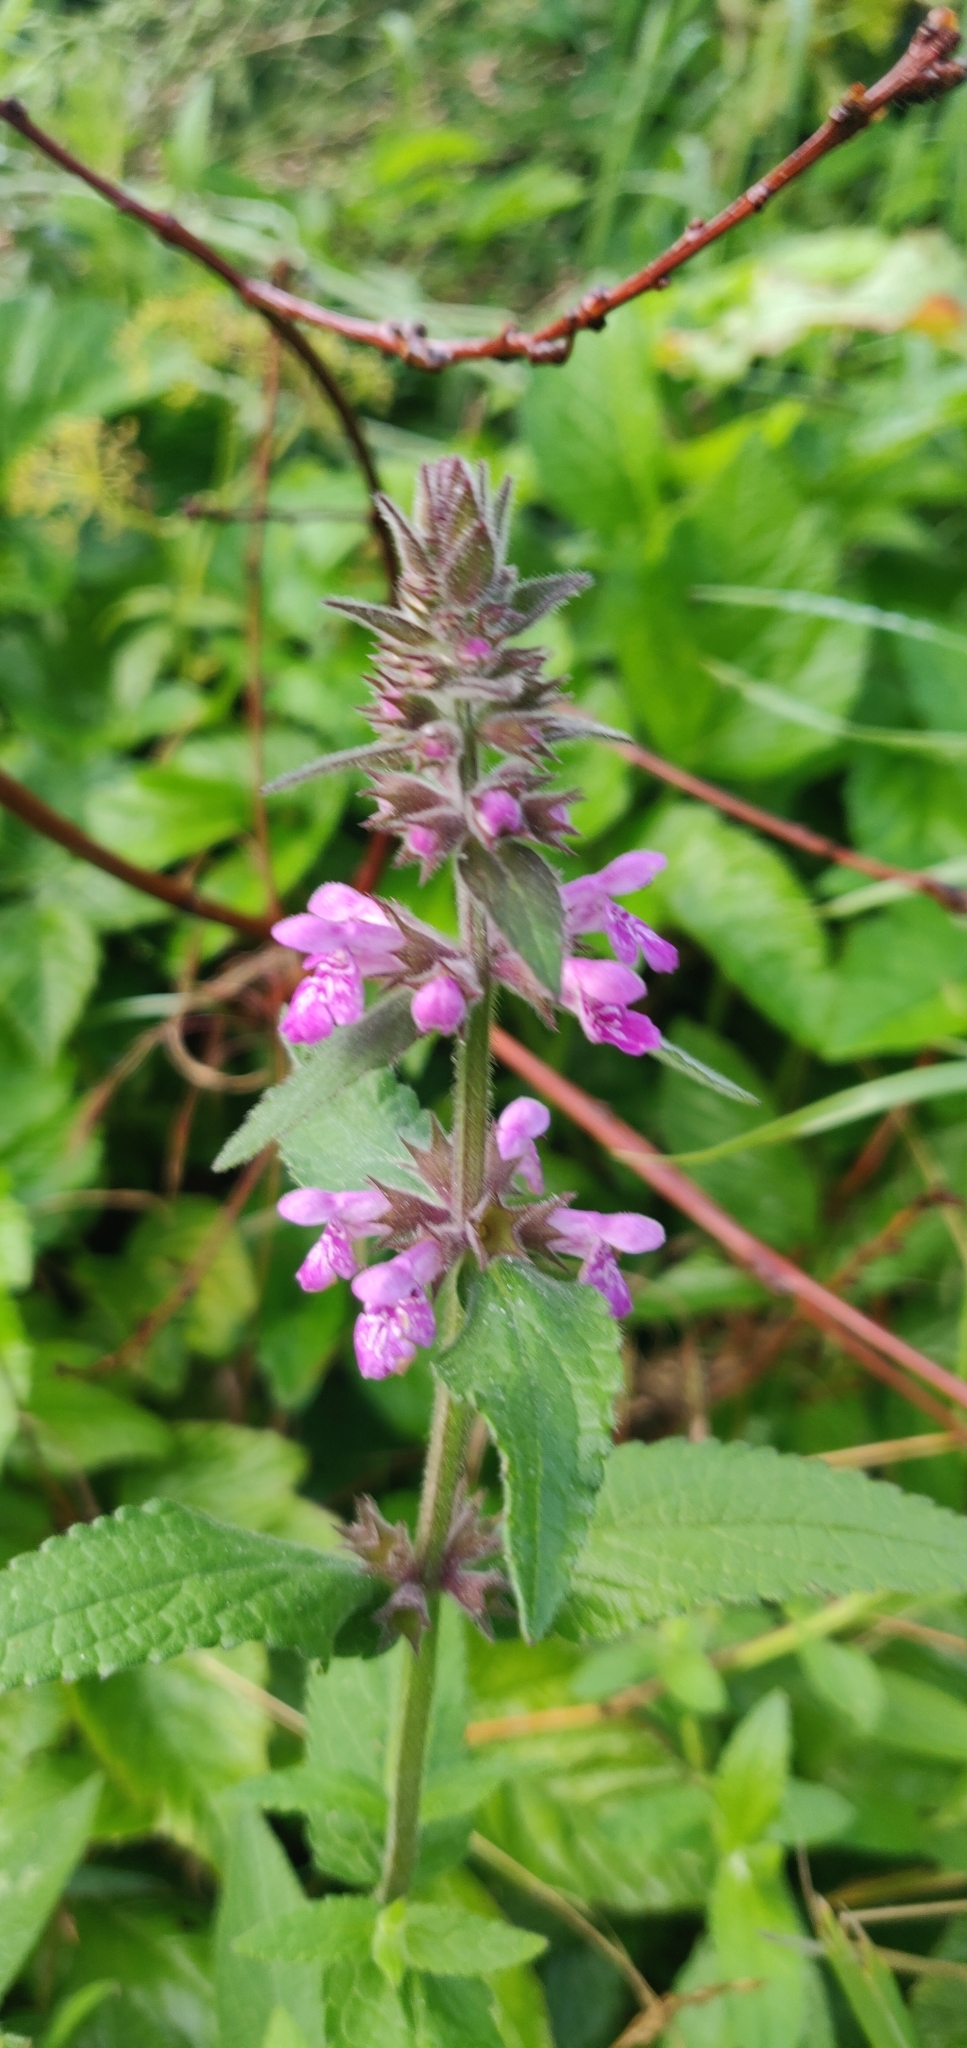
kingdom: Plantae
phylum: Tracheophyta
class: Magnoliopsida
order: Lamiales
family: Lamiaceae
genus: Stachys
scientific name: Stachys palustris
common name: Marsh woundwort
